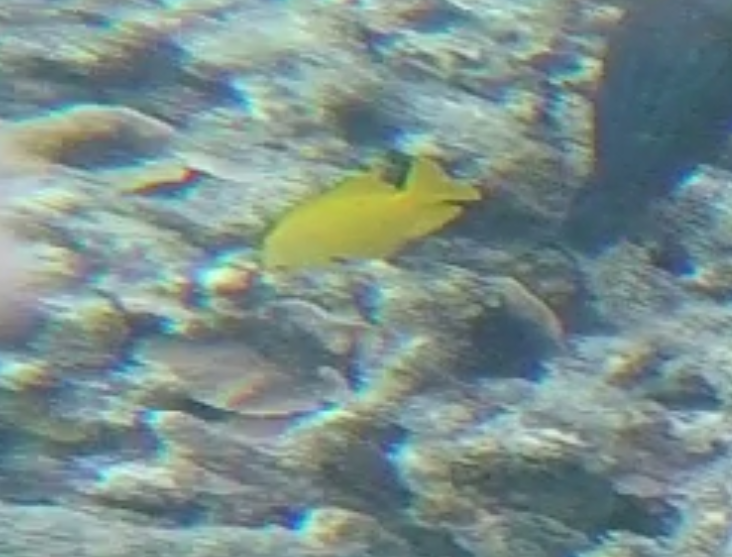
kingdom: Animalia
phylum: Chordata
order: Perciformes
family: Pomacentridae
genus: Pomacentrus
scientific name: Pomacentrus sulfureus
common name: Sulfur damsel
